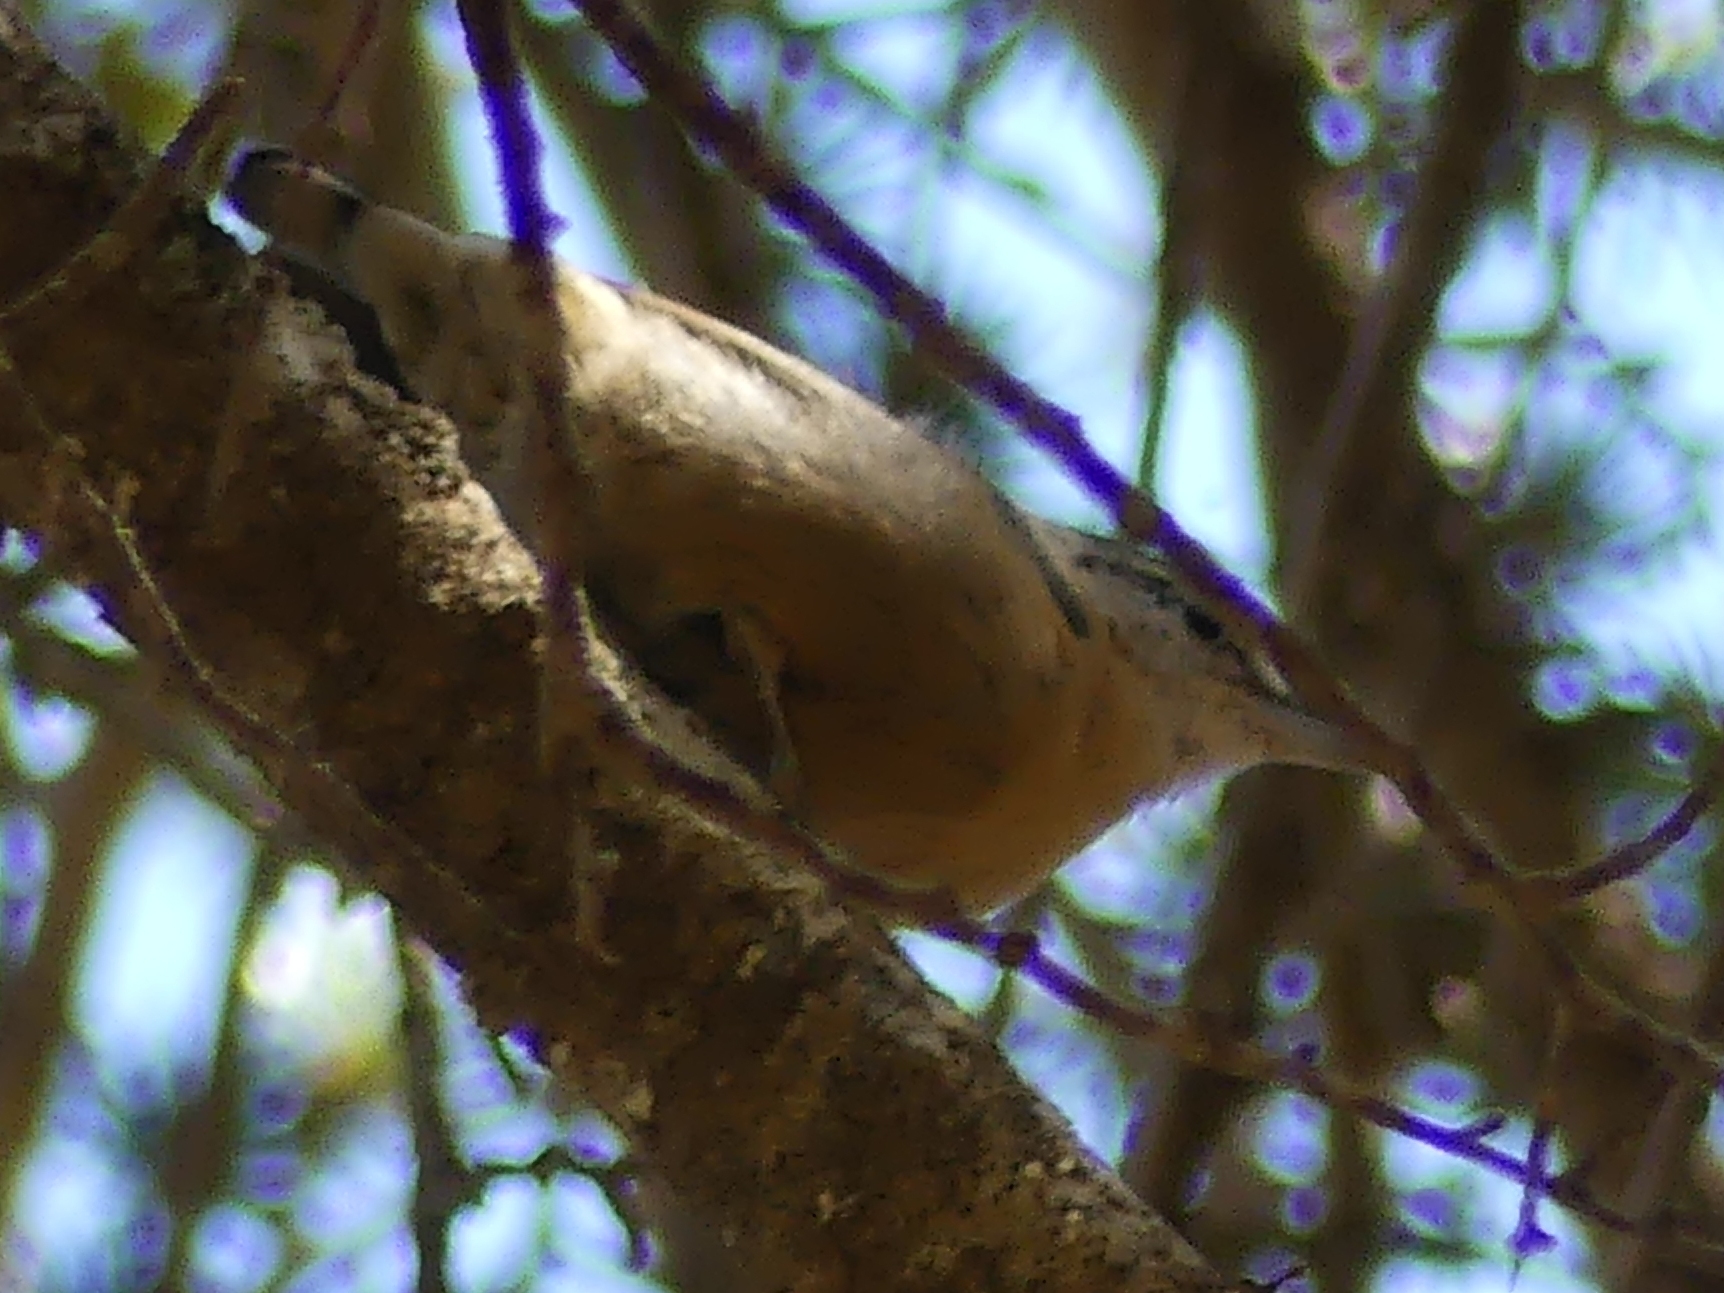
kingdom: Animalia
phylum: Chordata
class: Aves
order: Passeriformes
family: Sittidae
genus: Sitta
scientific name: Sitta ledanti
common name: Algerian nuthatch
